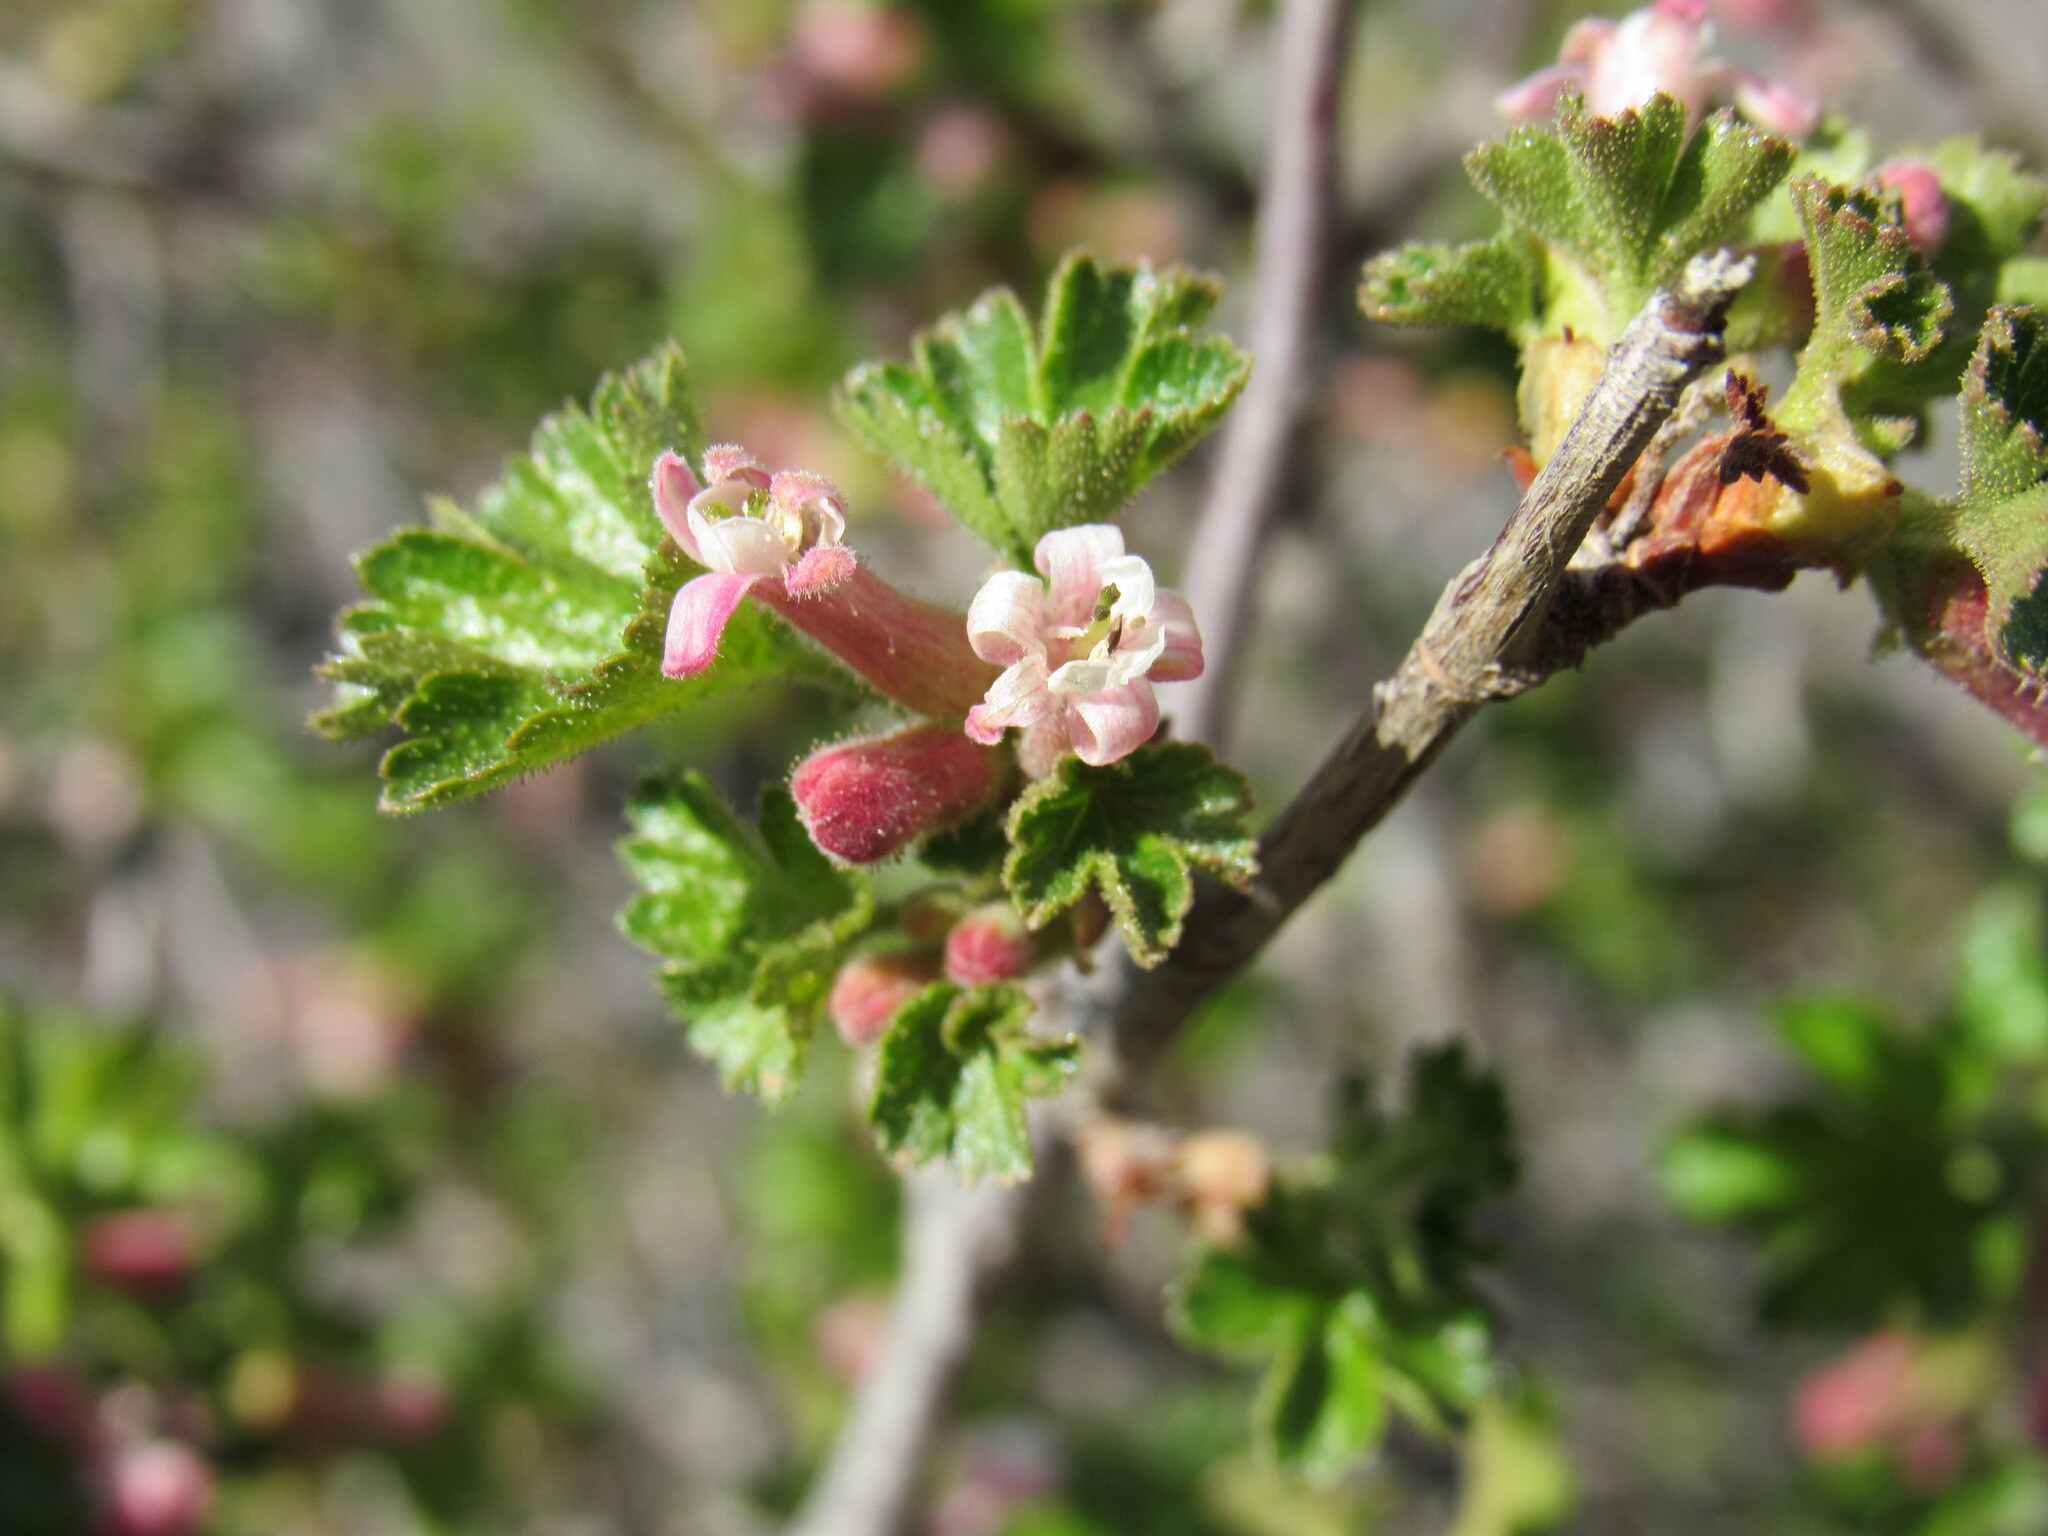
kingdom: Plantae
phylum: Tracheophyta
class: Magnoliopsida
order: Saxifragales
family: Grossulariaceae
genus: Ribes
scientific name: Ribes cereum
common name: Wax currant
